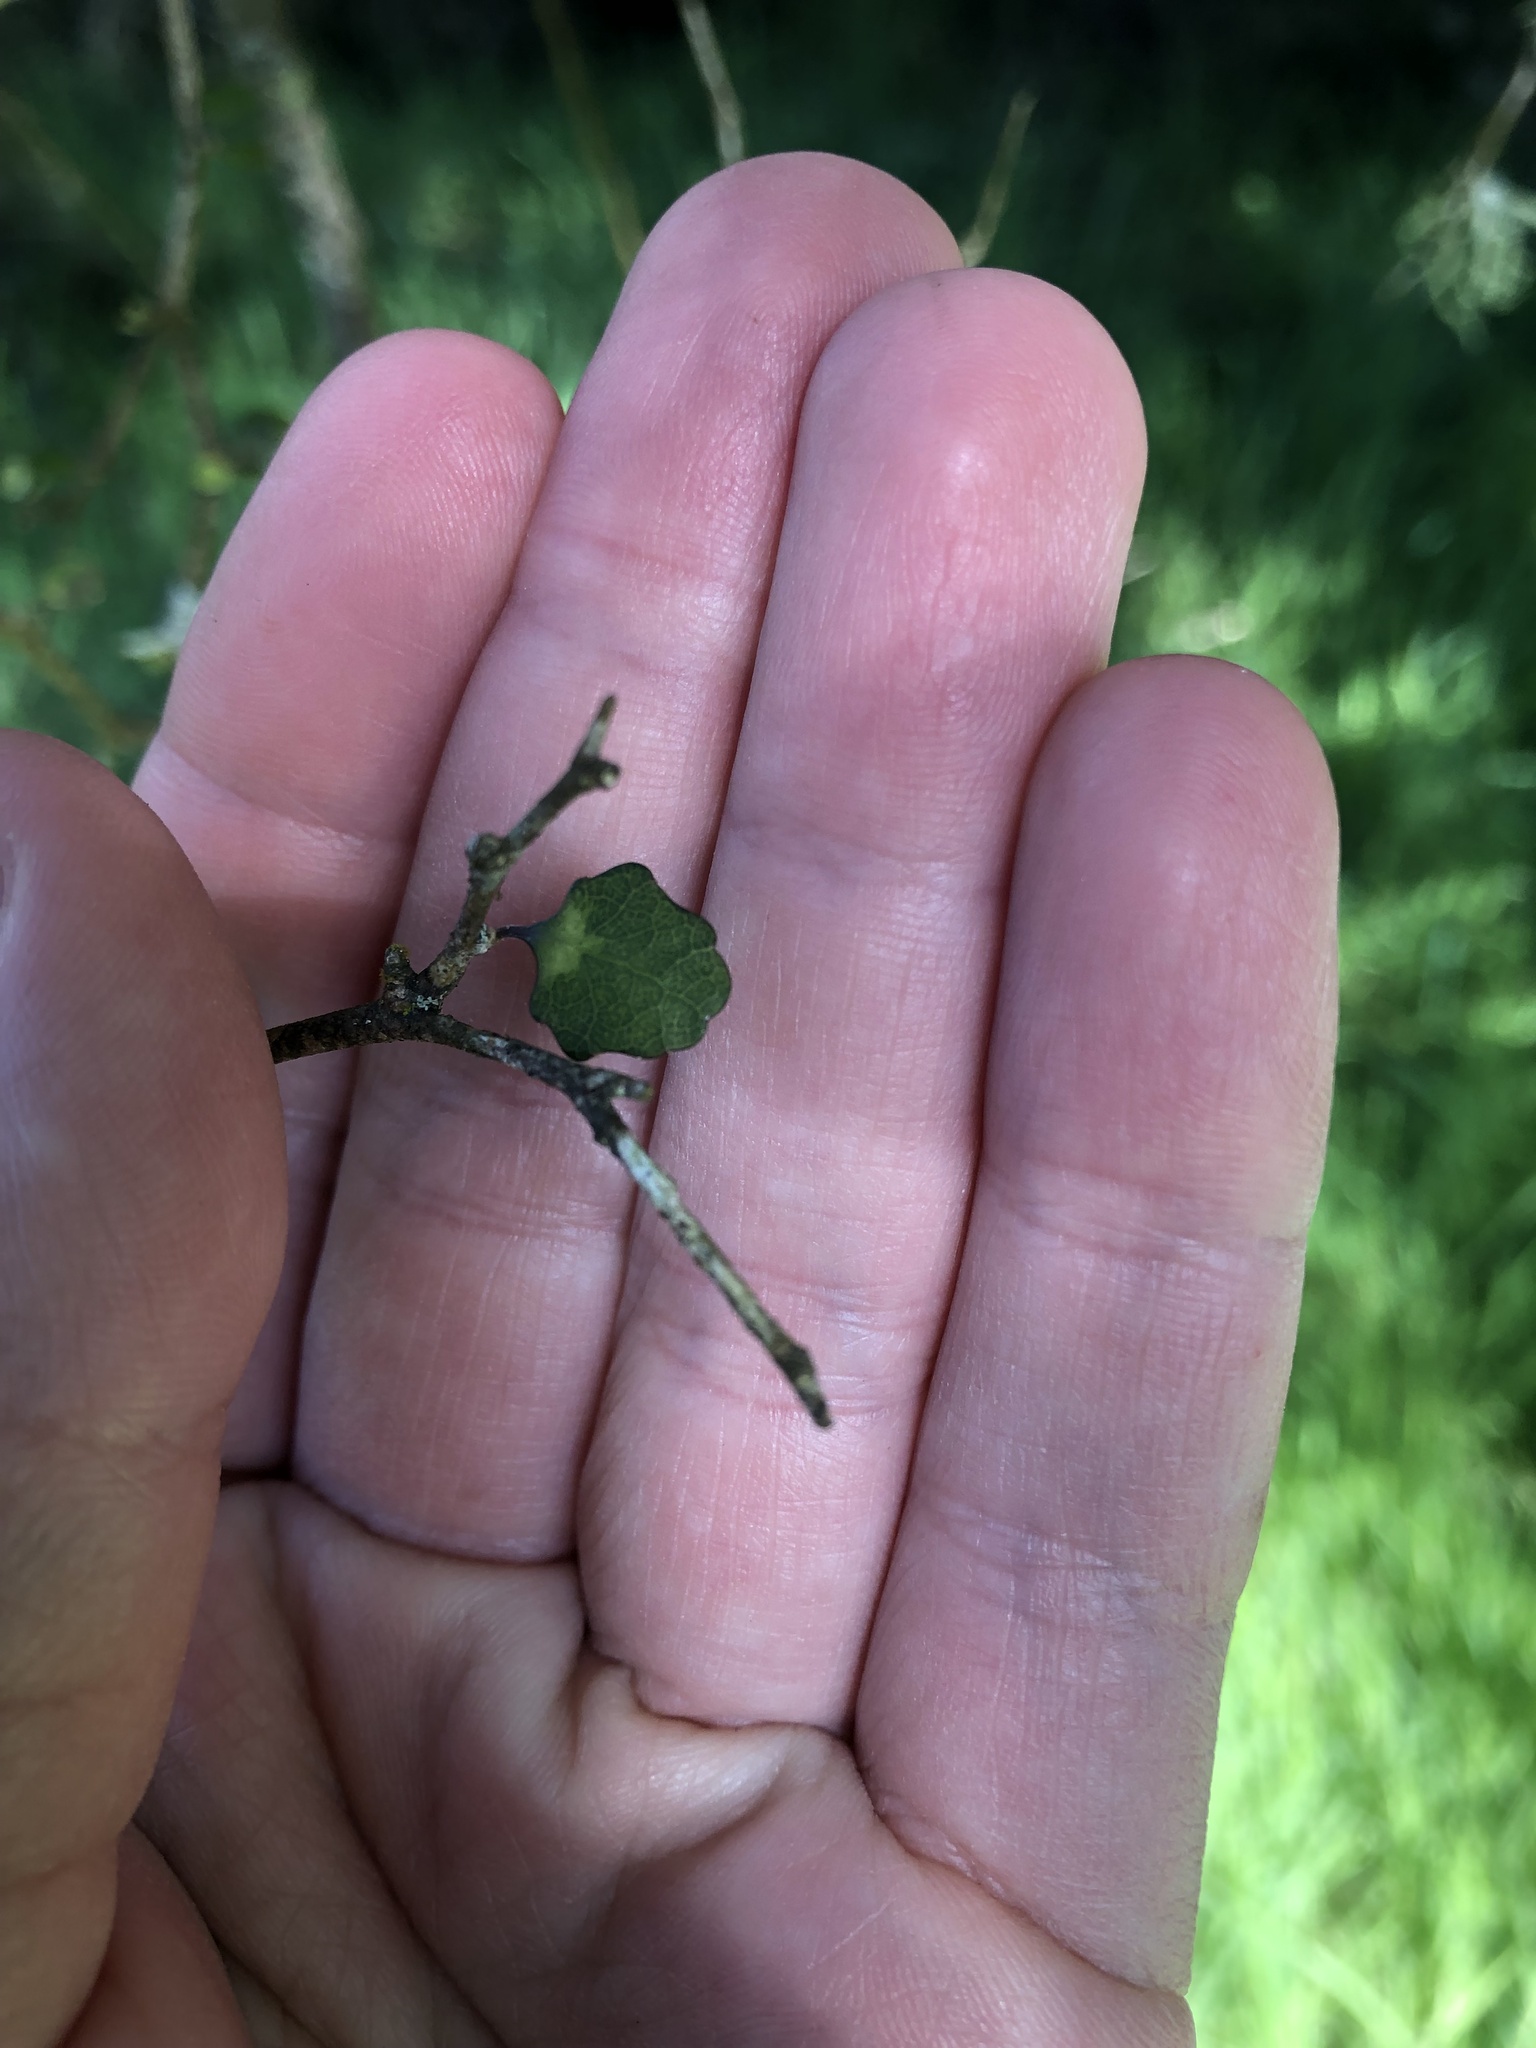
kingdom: Plantae
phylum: Tracheophyta
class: Magnoliopsida
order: Malpighiales
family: Violaceae
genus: Melicytus
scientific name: Melicytus micranthus
